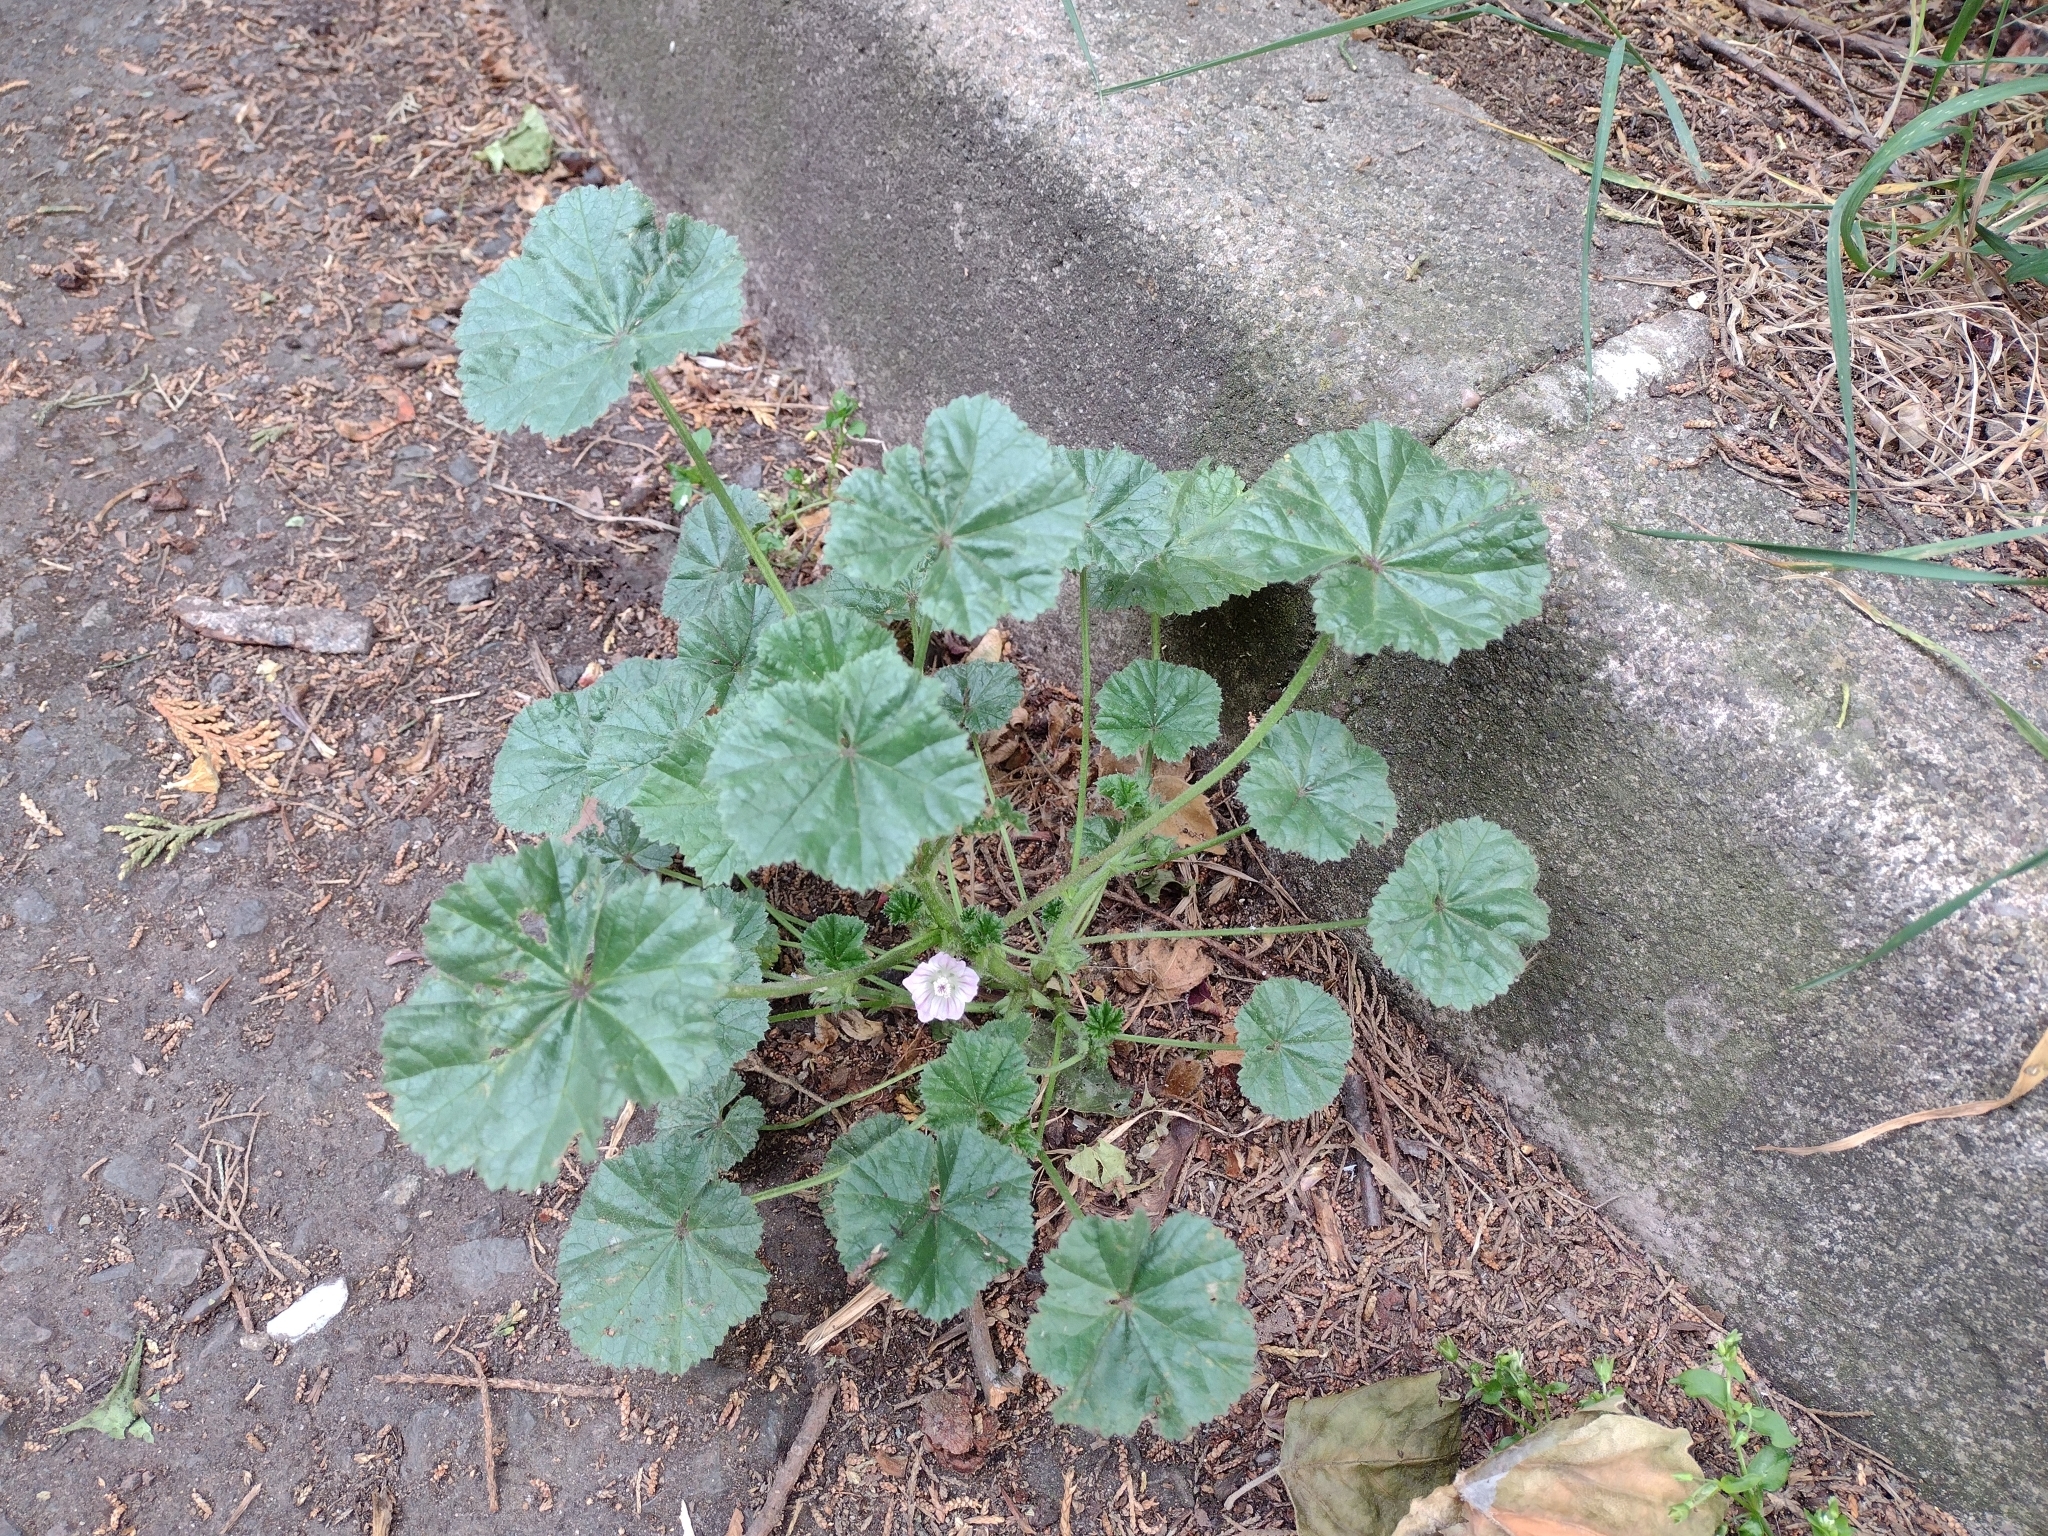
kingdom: Plantae
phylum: Tracheophyta
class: Magnoliopsida
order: Malvales
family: Malvaceae
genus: Malva
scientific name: Malva neglecta
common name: Common mallow
